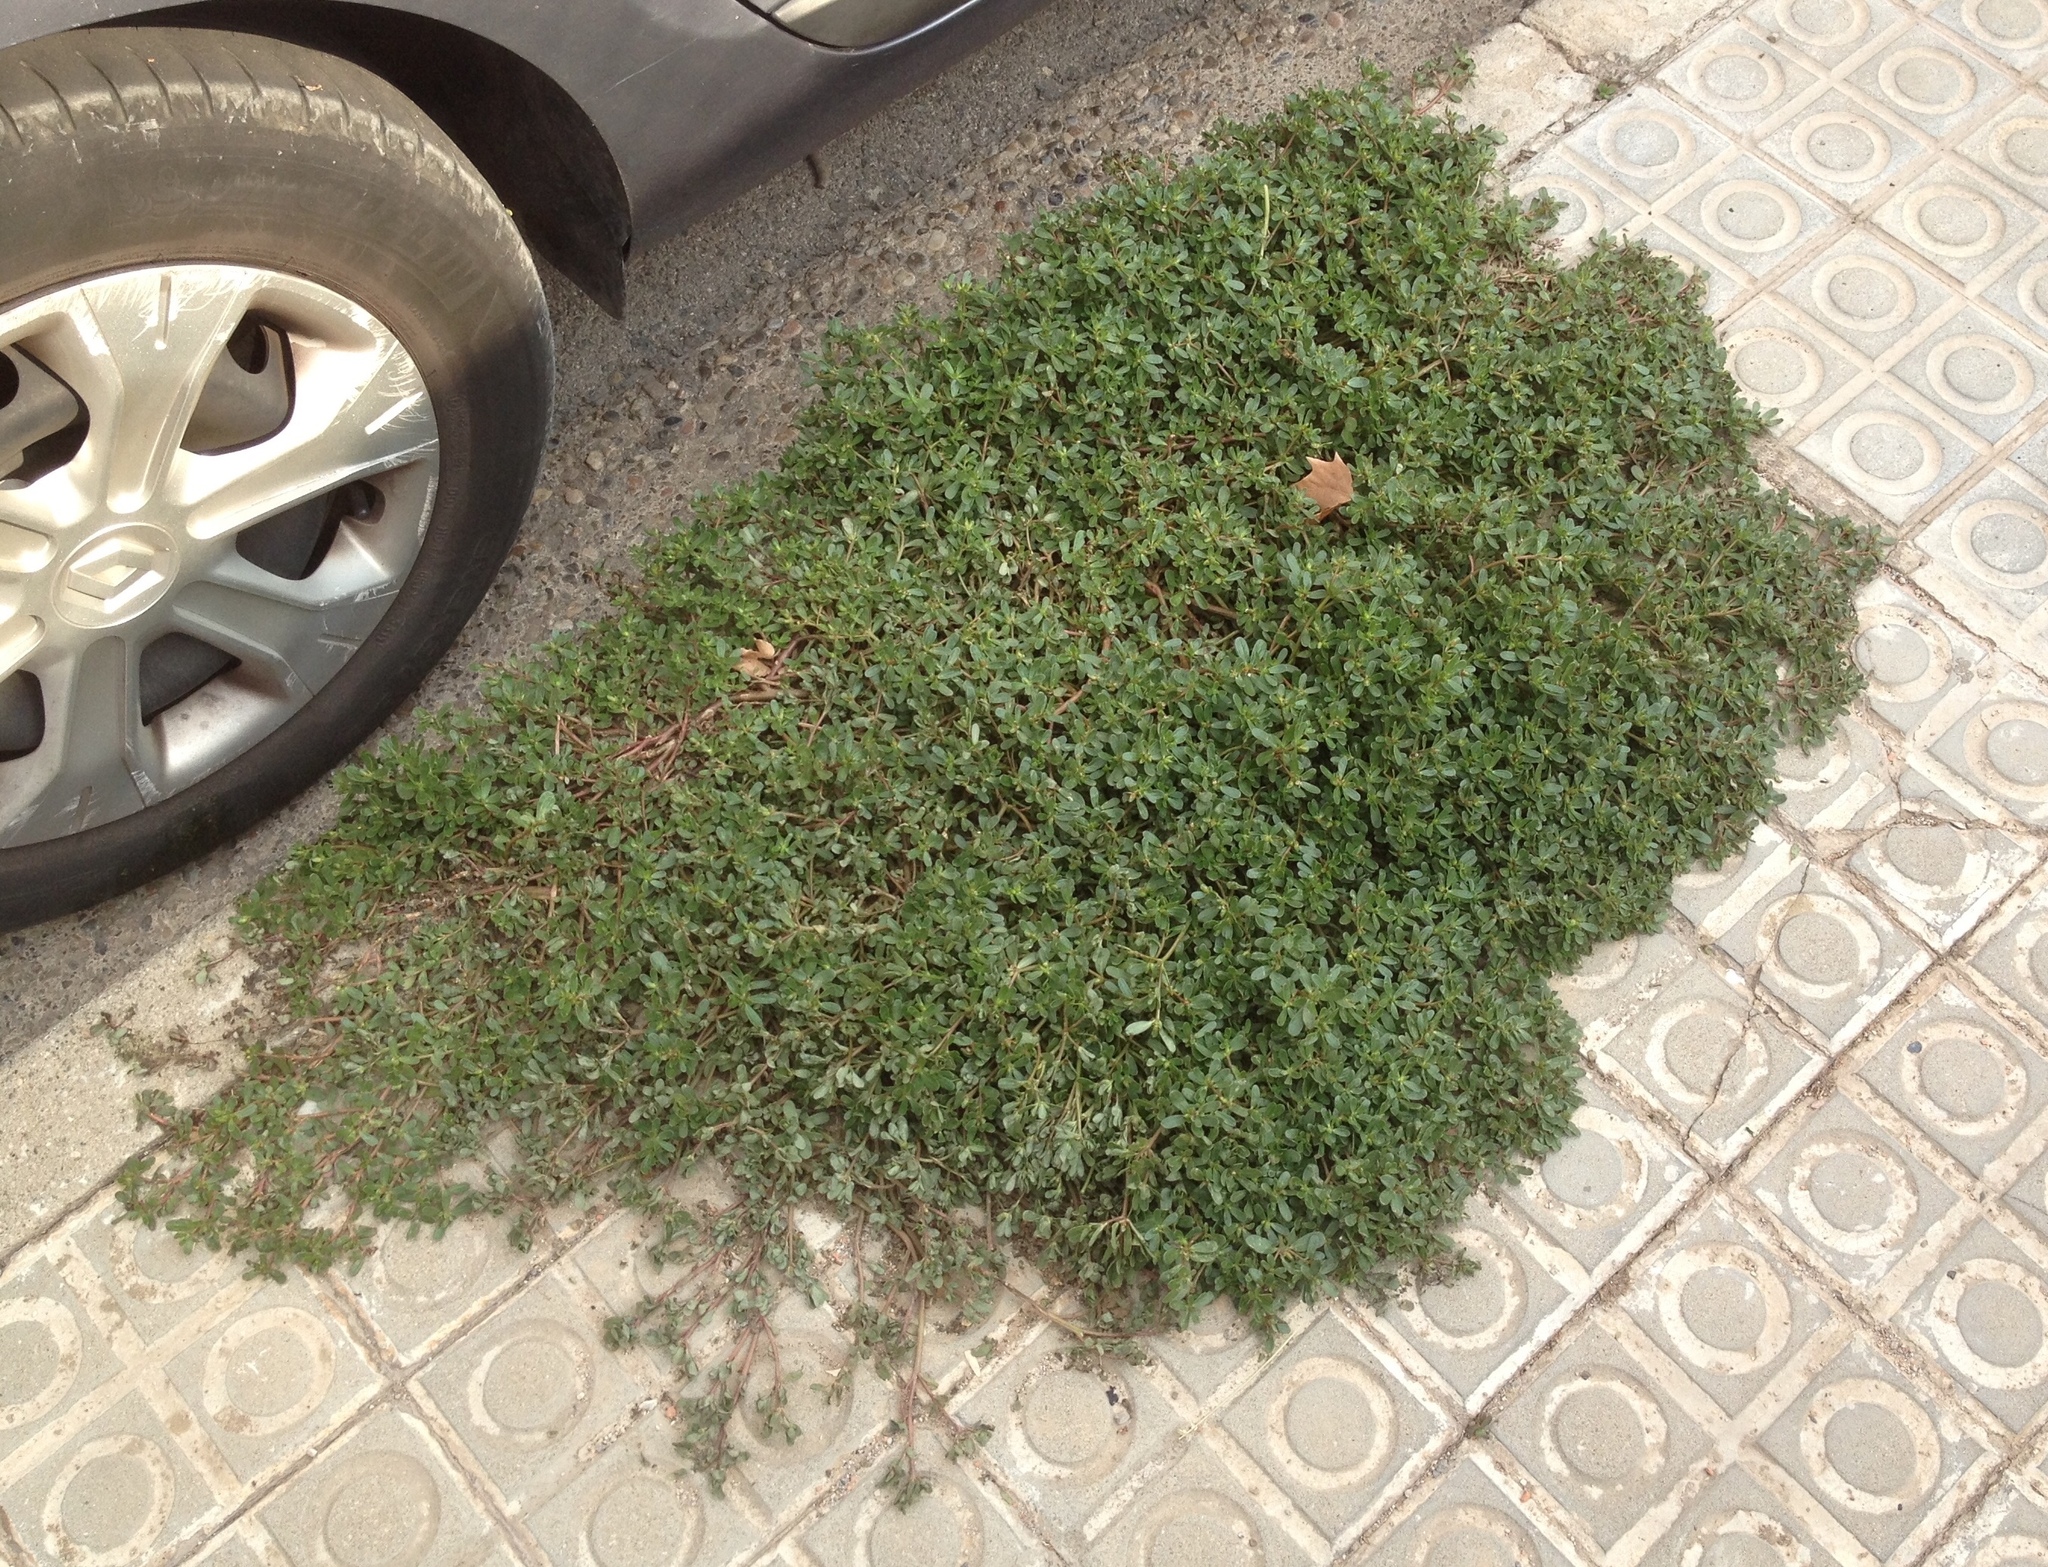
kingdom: Plantae
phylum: Tracheophyta
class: Magnoliopsida
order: Caryophyllales
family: Portulacaceae
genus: Portulaca
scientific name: Portulaca oleracea
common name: Common purslane
